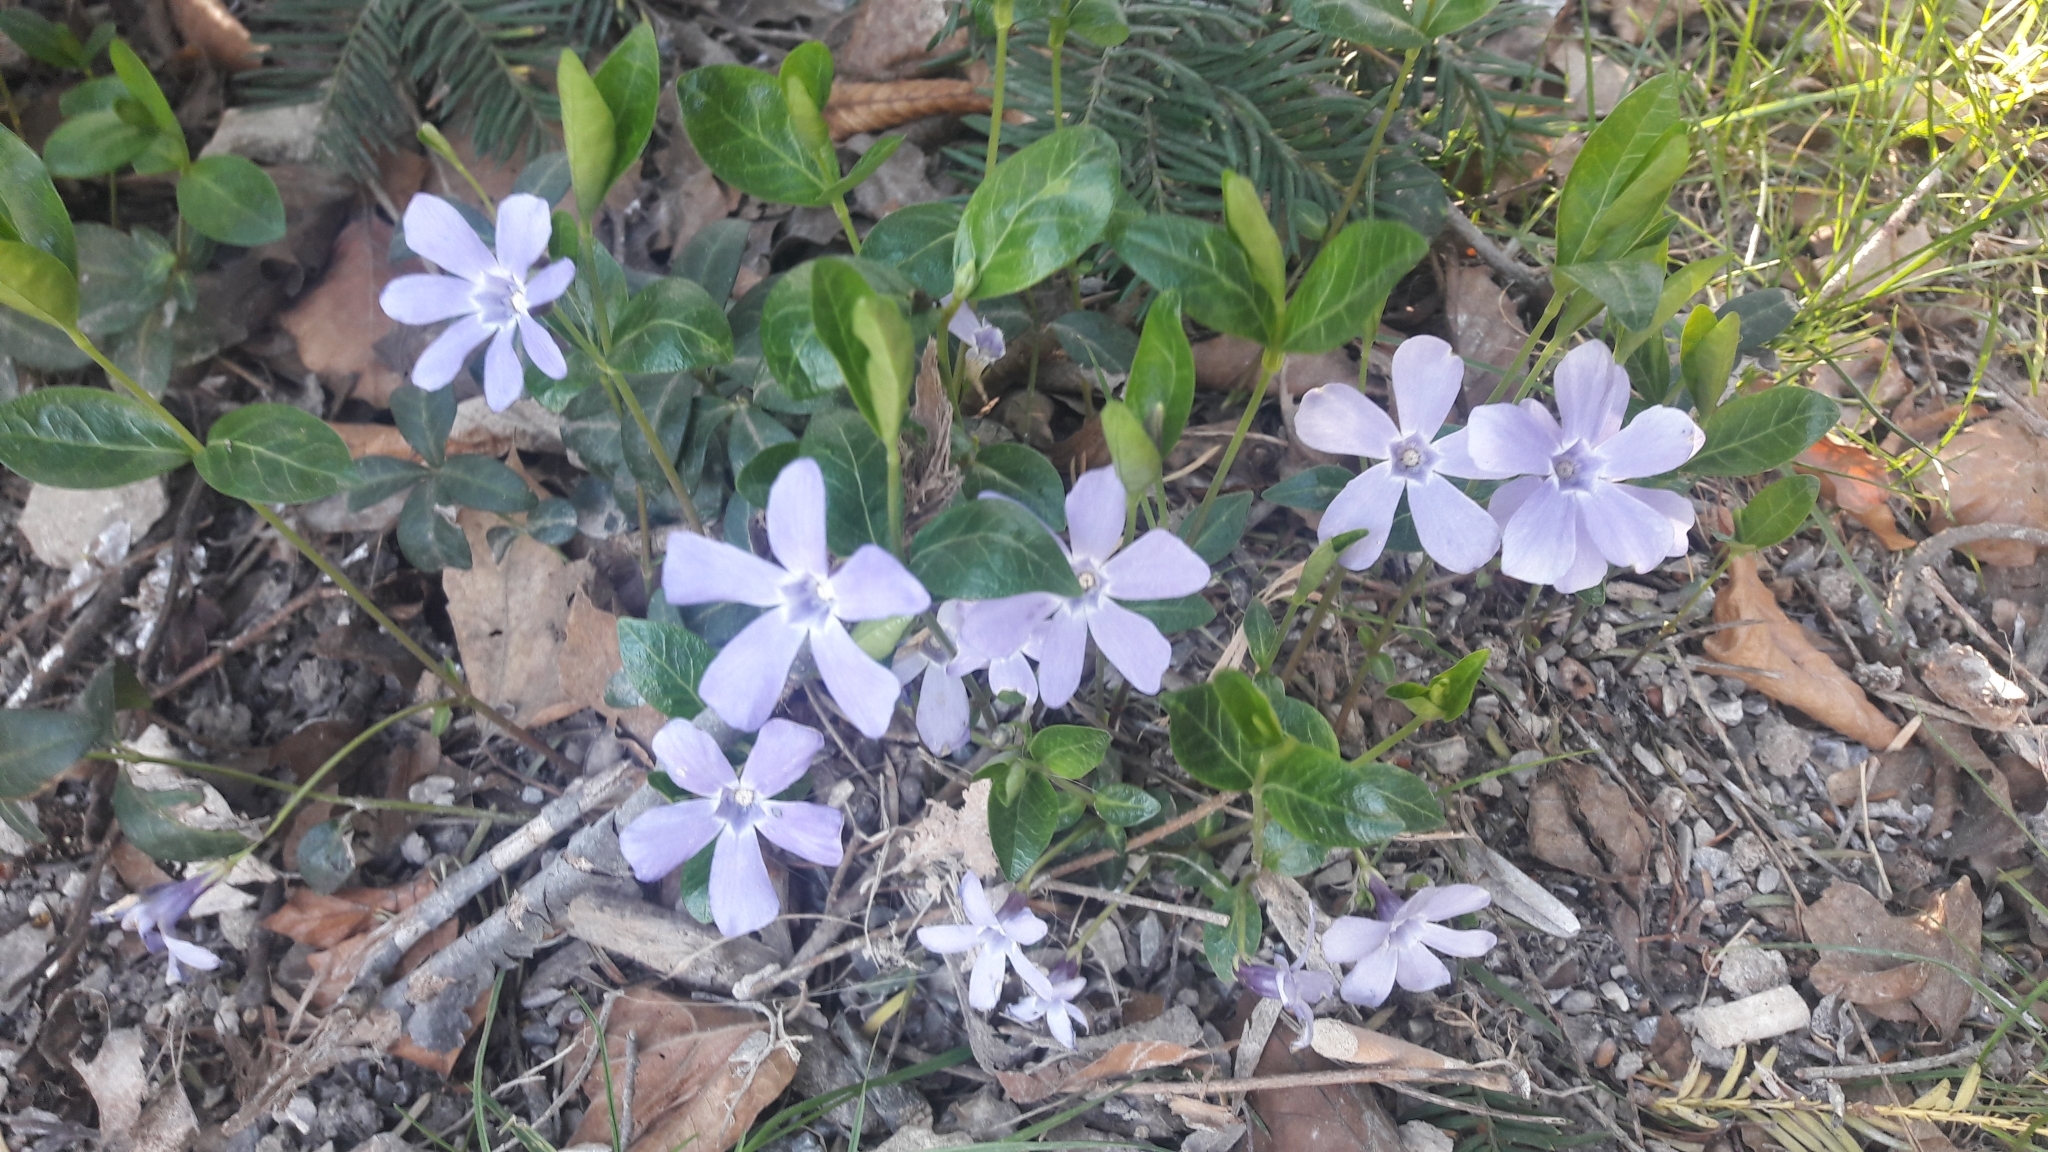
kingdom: Plantae
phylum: Tracheophyta
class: Magnoliopsida
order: Gentianales
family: Apocynaceae
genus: Vinca
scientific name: Vinca minor
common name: Lesser periwinkle
